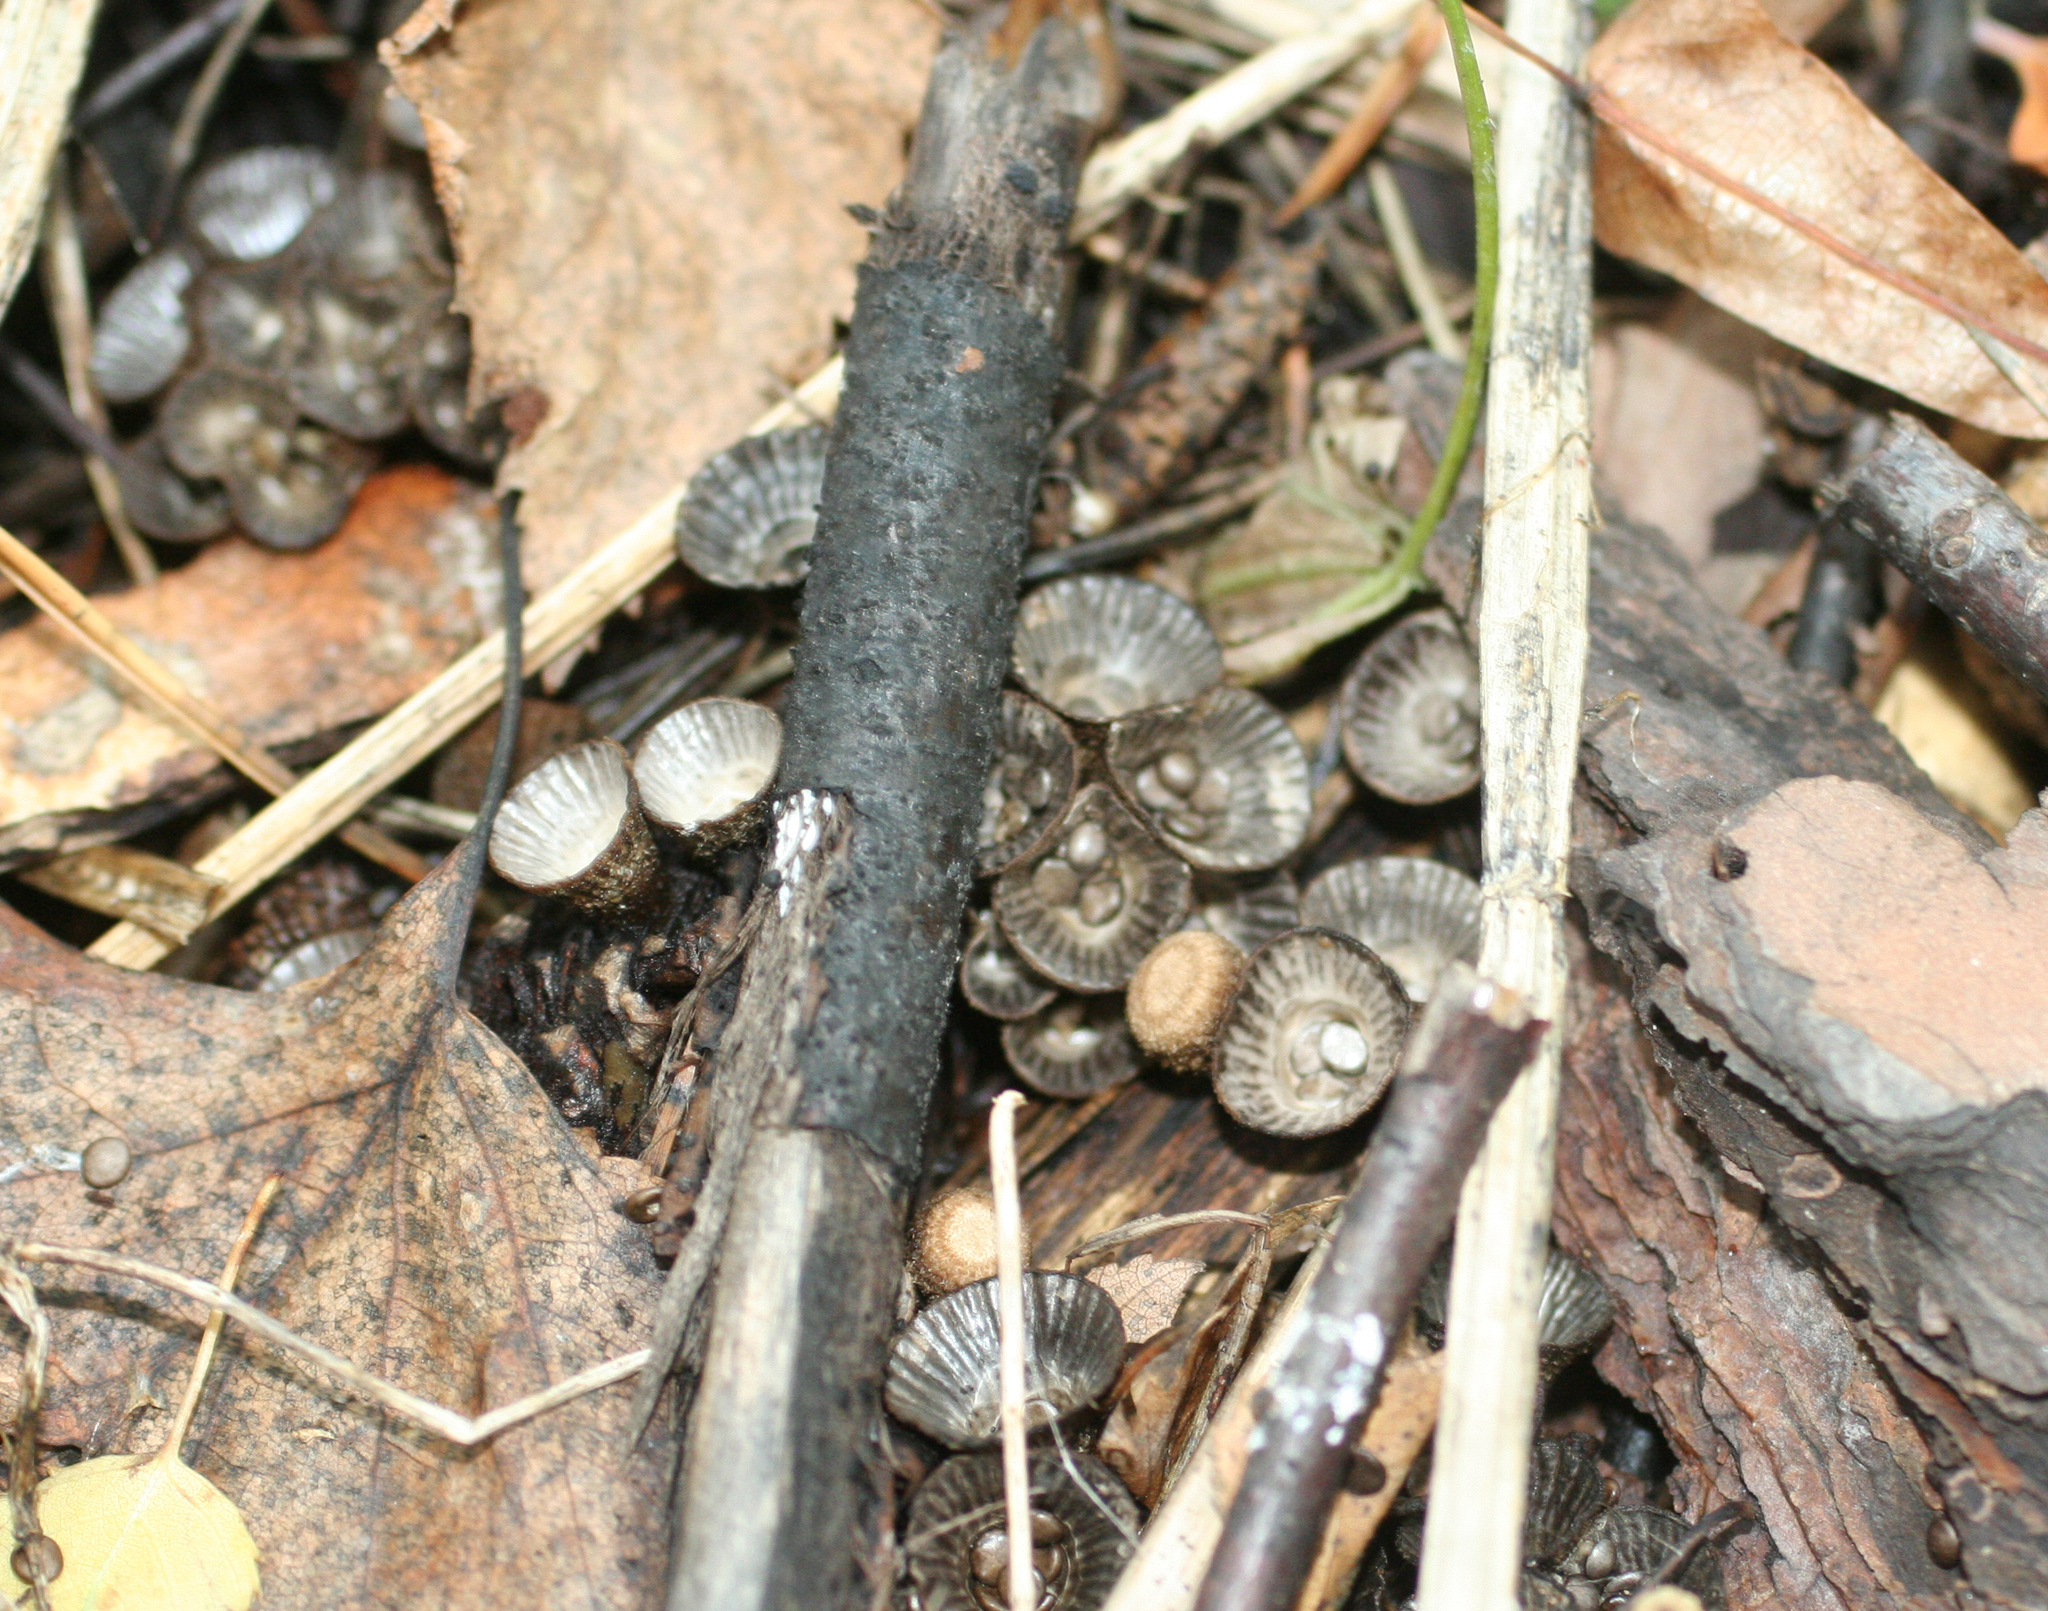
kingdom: Fungi
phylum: Basidiomycota
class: Agaricomycetes
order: Agaricales
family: Agaricaceae
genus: Cyathus
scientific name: Cyathus striatus
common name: Fluted bird's nest
